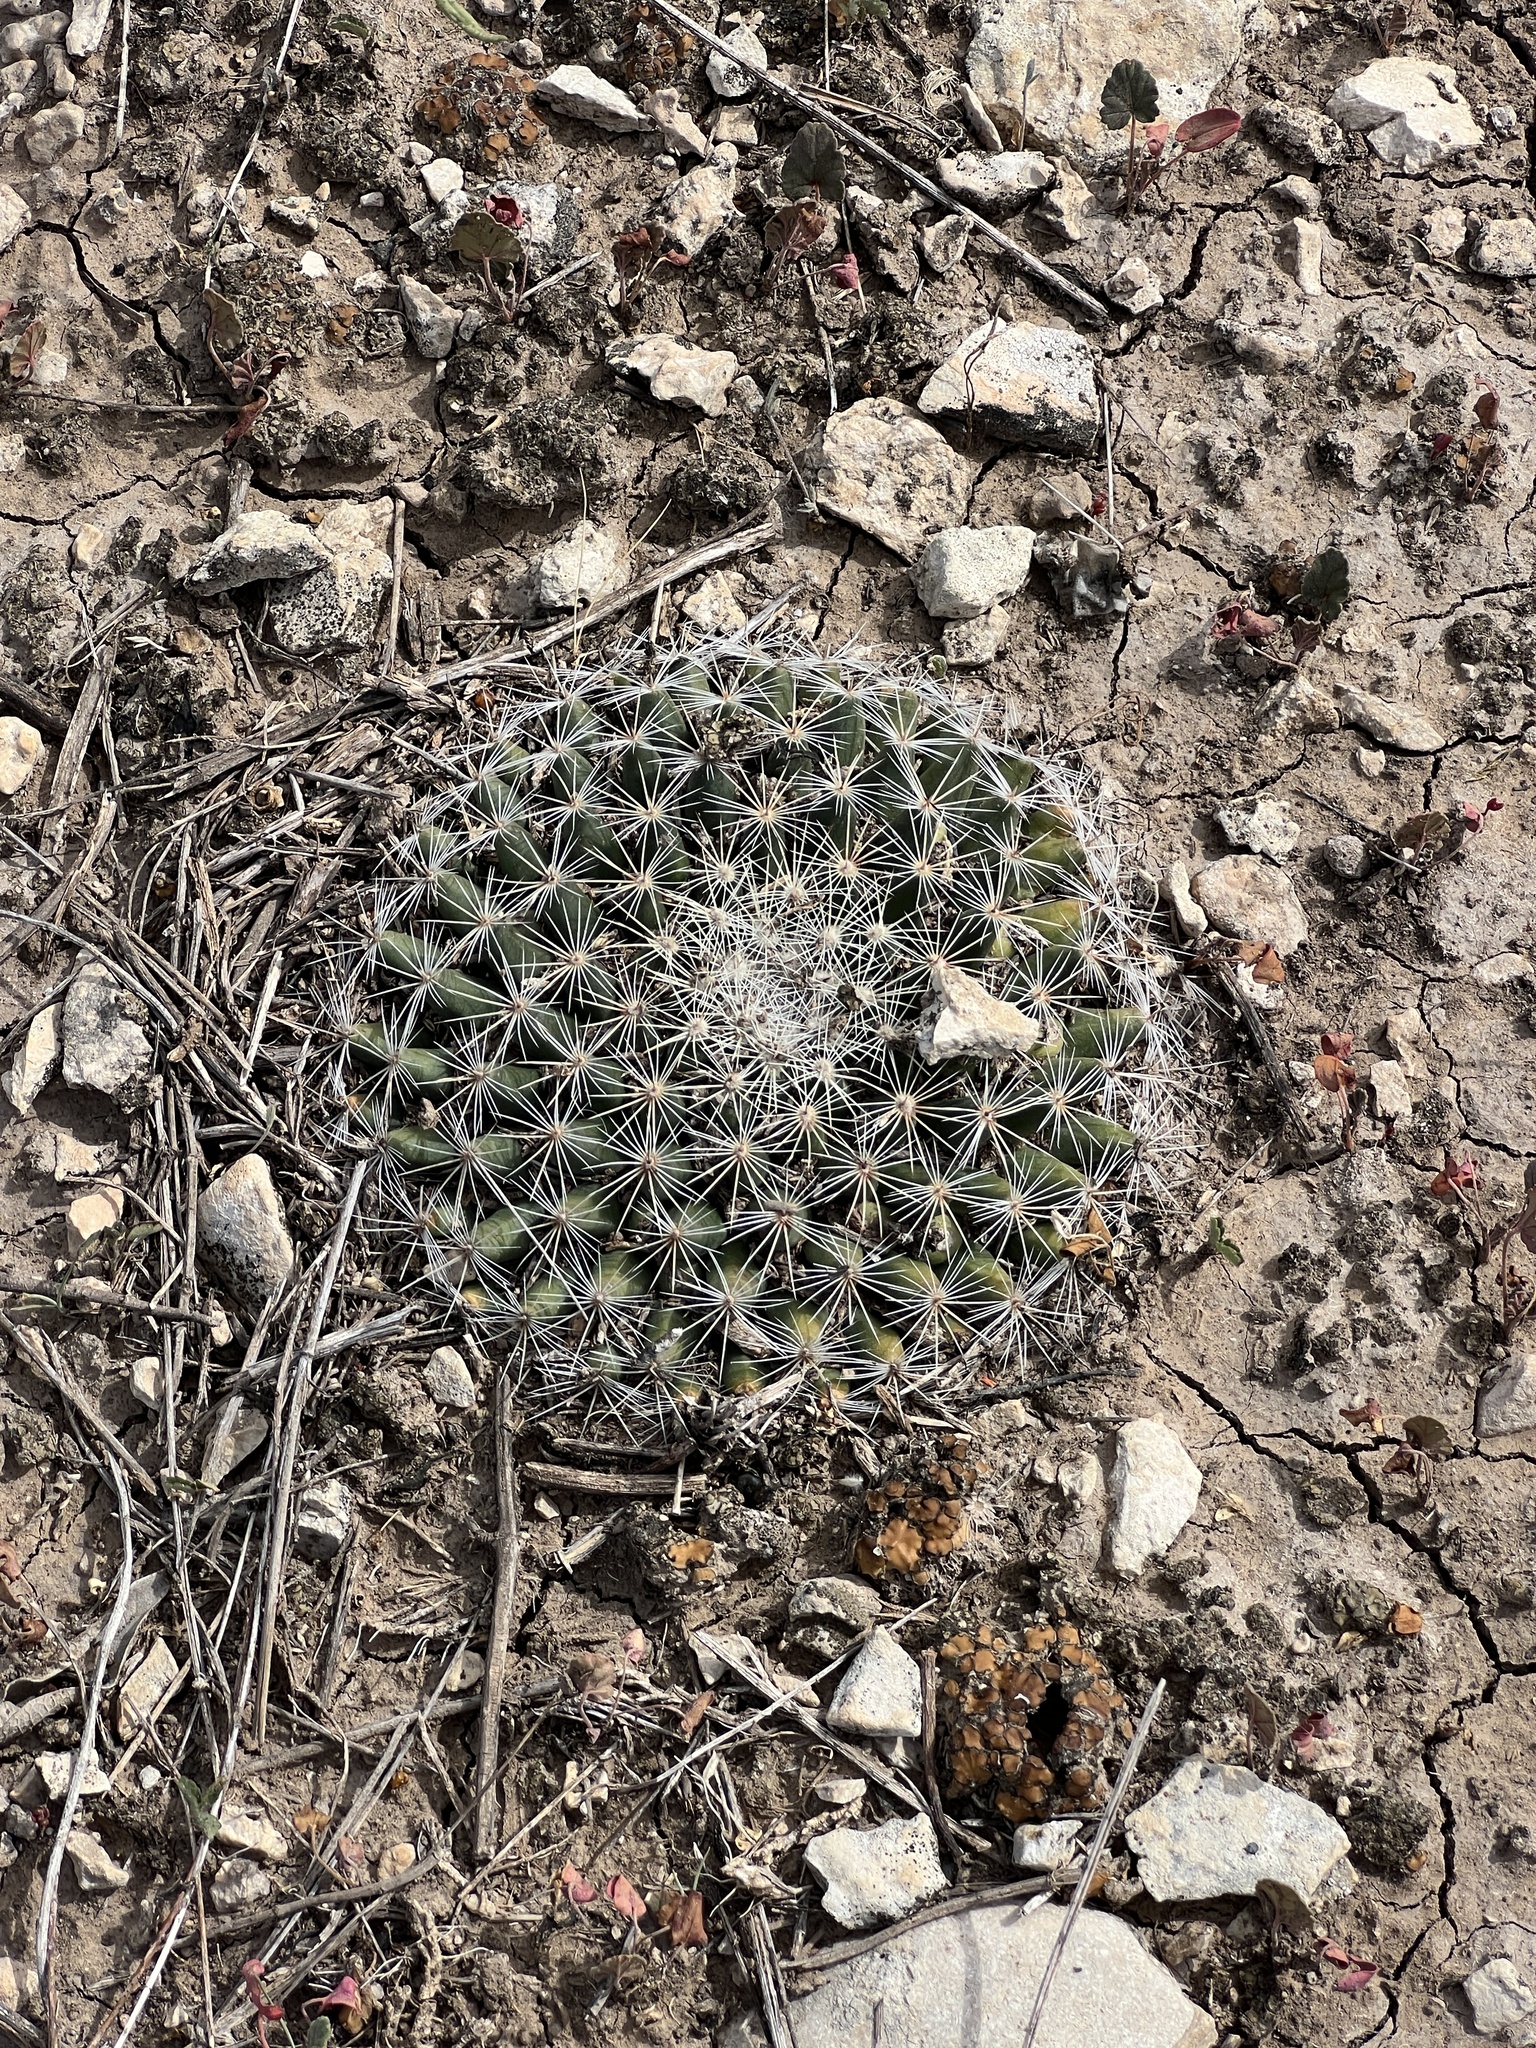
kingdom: Plantae
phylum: Tracheophyta
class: Magnoliopsida
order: Caryophyllales
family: Cactaceae
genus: Mammillaria
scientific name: Mammillaria heyderi
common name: Little nipple cactus
